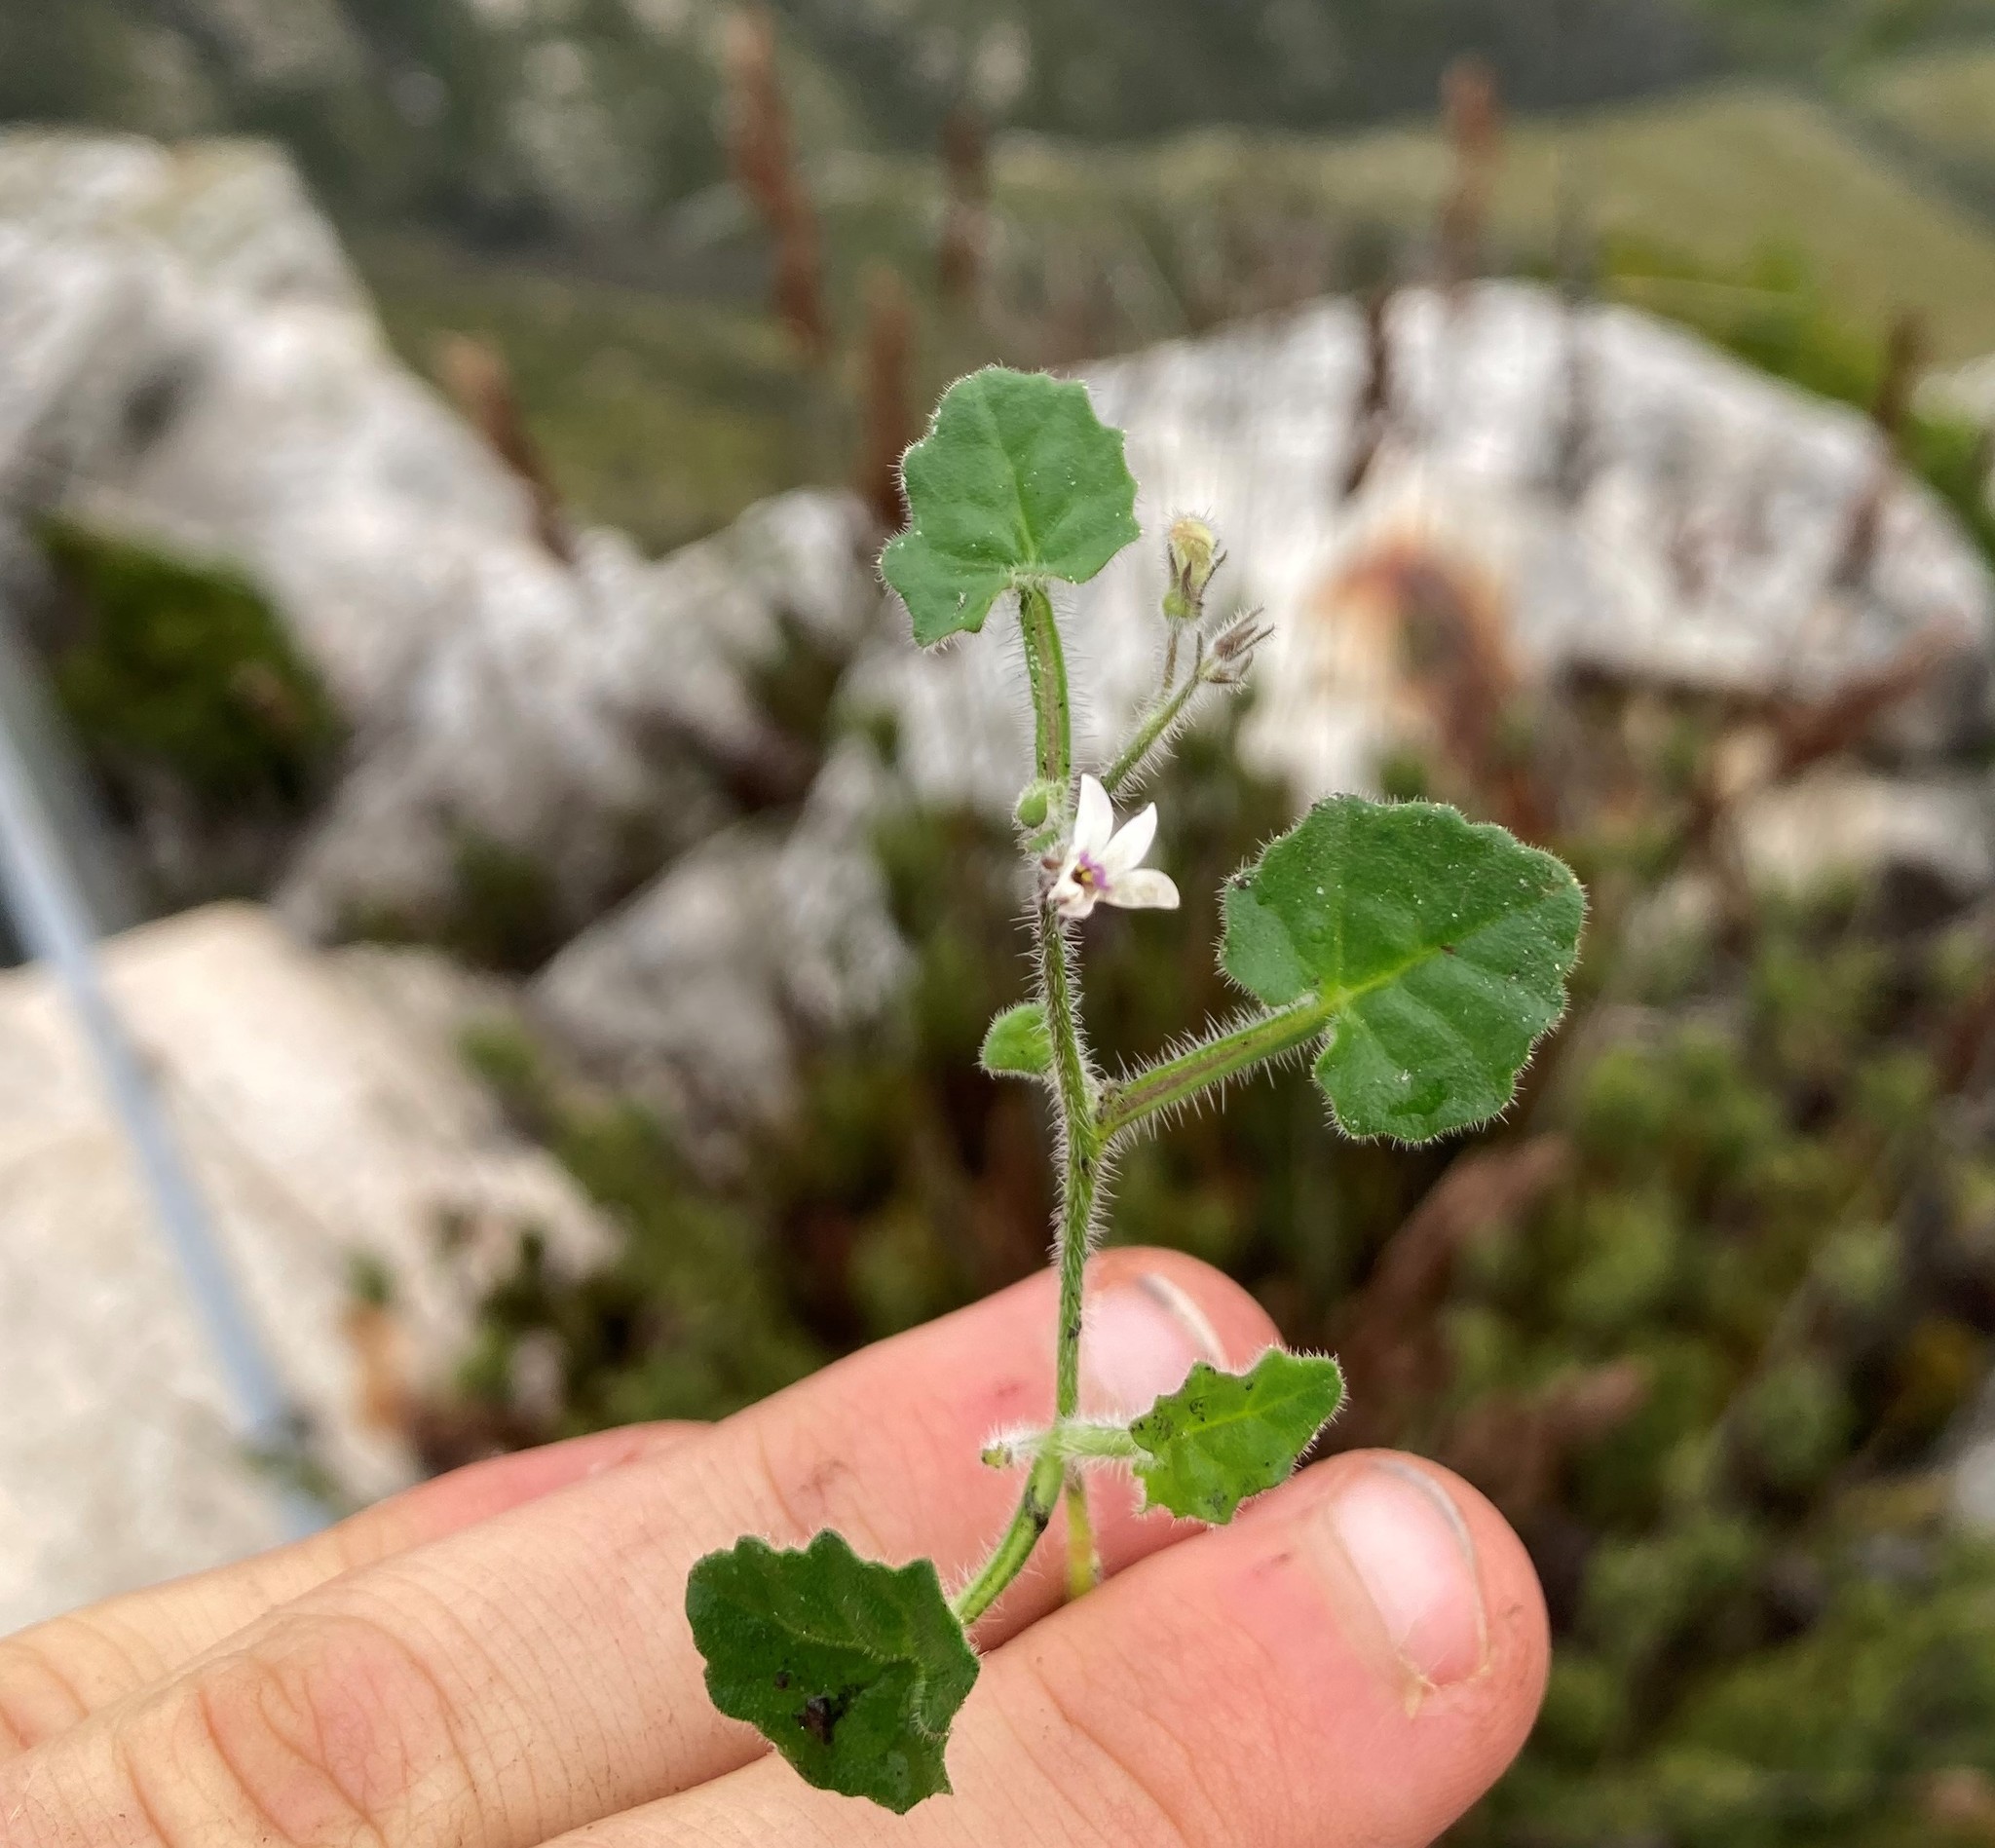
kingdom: Plantae
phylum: Tracheophyta
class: Magnoliopsida
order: Asterales
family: Campanulaceae
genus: Lobelia
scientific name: Lobelia ardisiandroides
